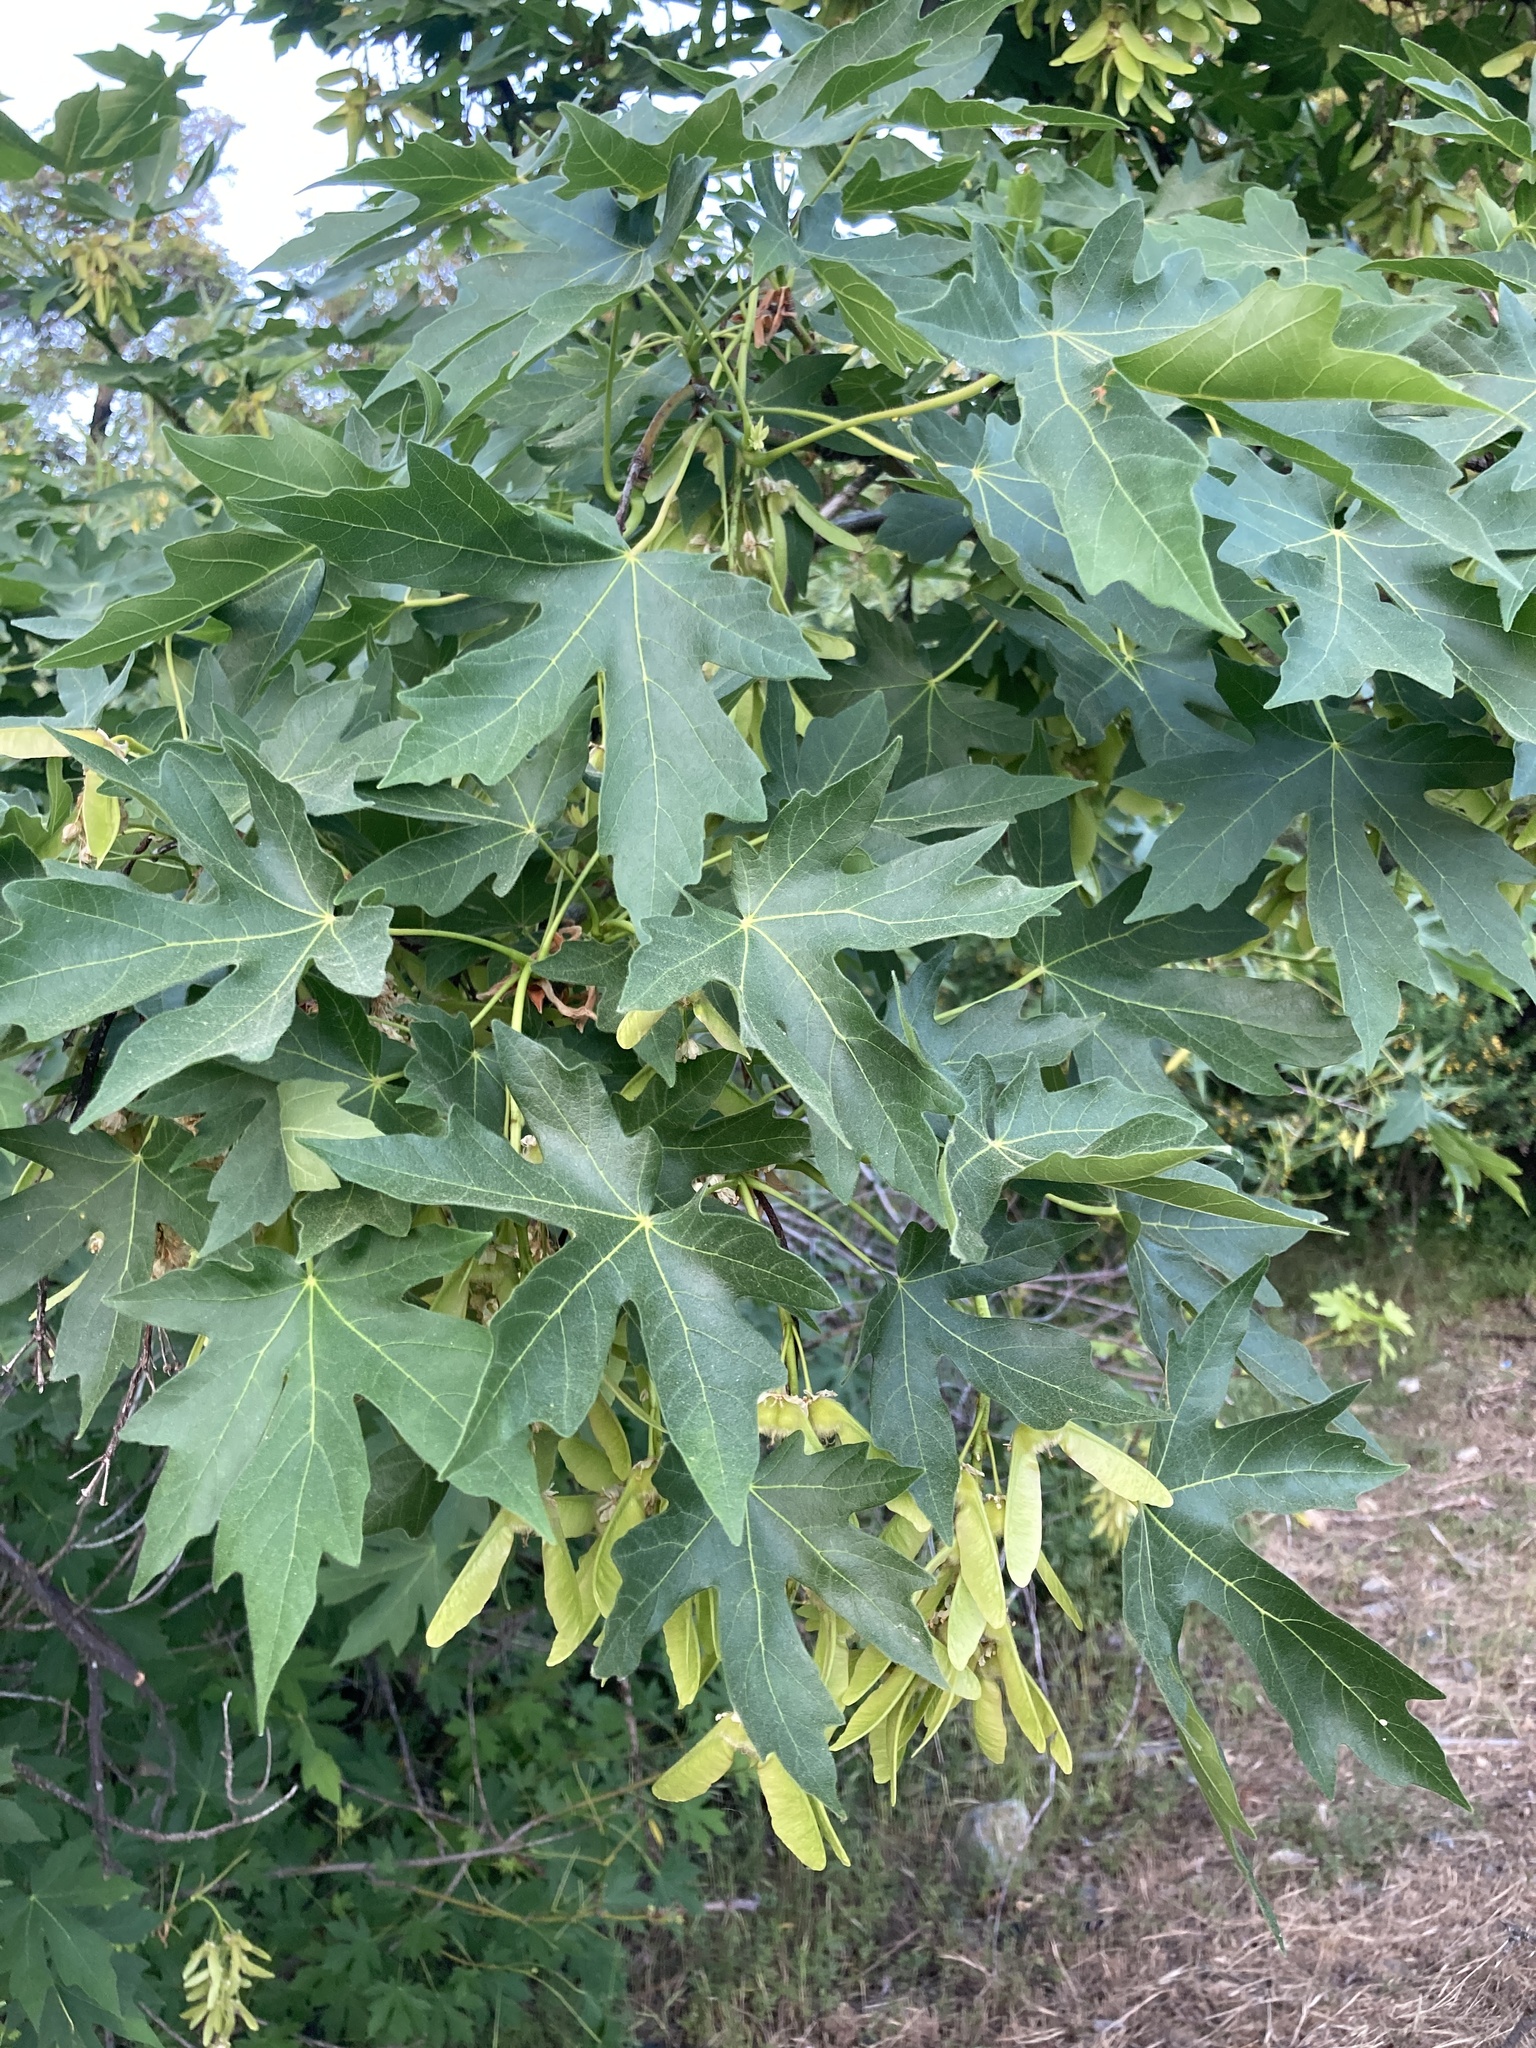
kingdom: Plantae
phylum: Tracheophyta
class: Magnoliopsida
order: Sapindales
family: Sapindaceae
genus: Acer
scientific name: Acer macrophyllum
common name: Oregon maple
